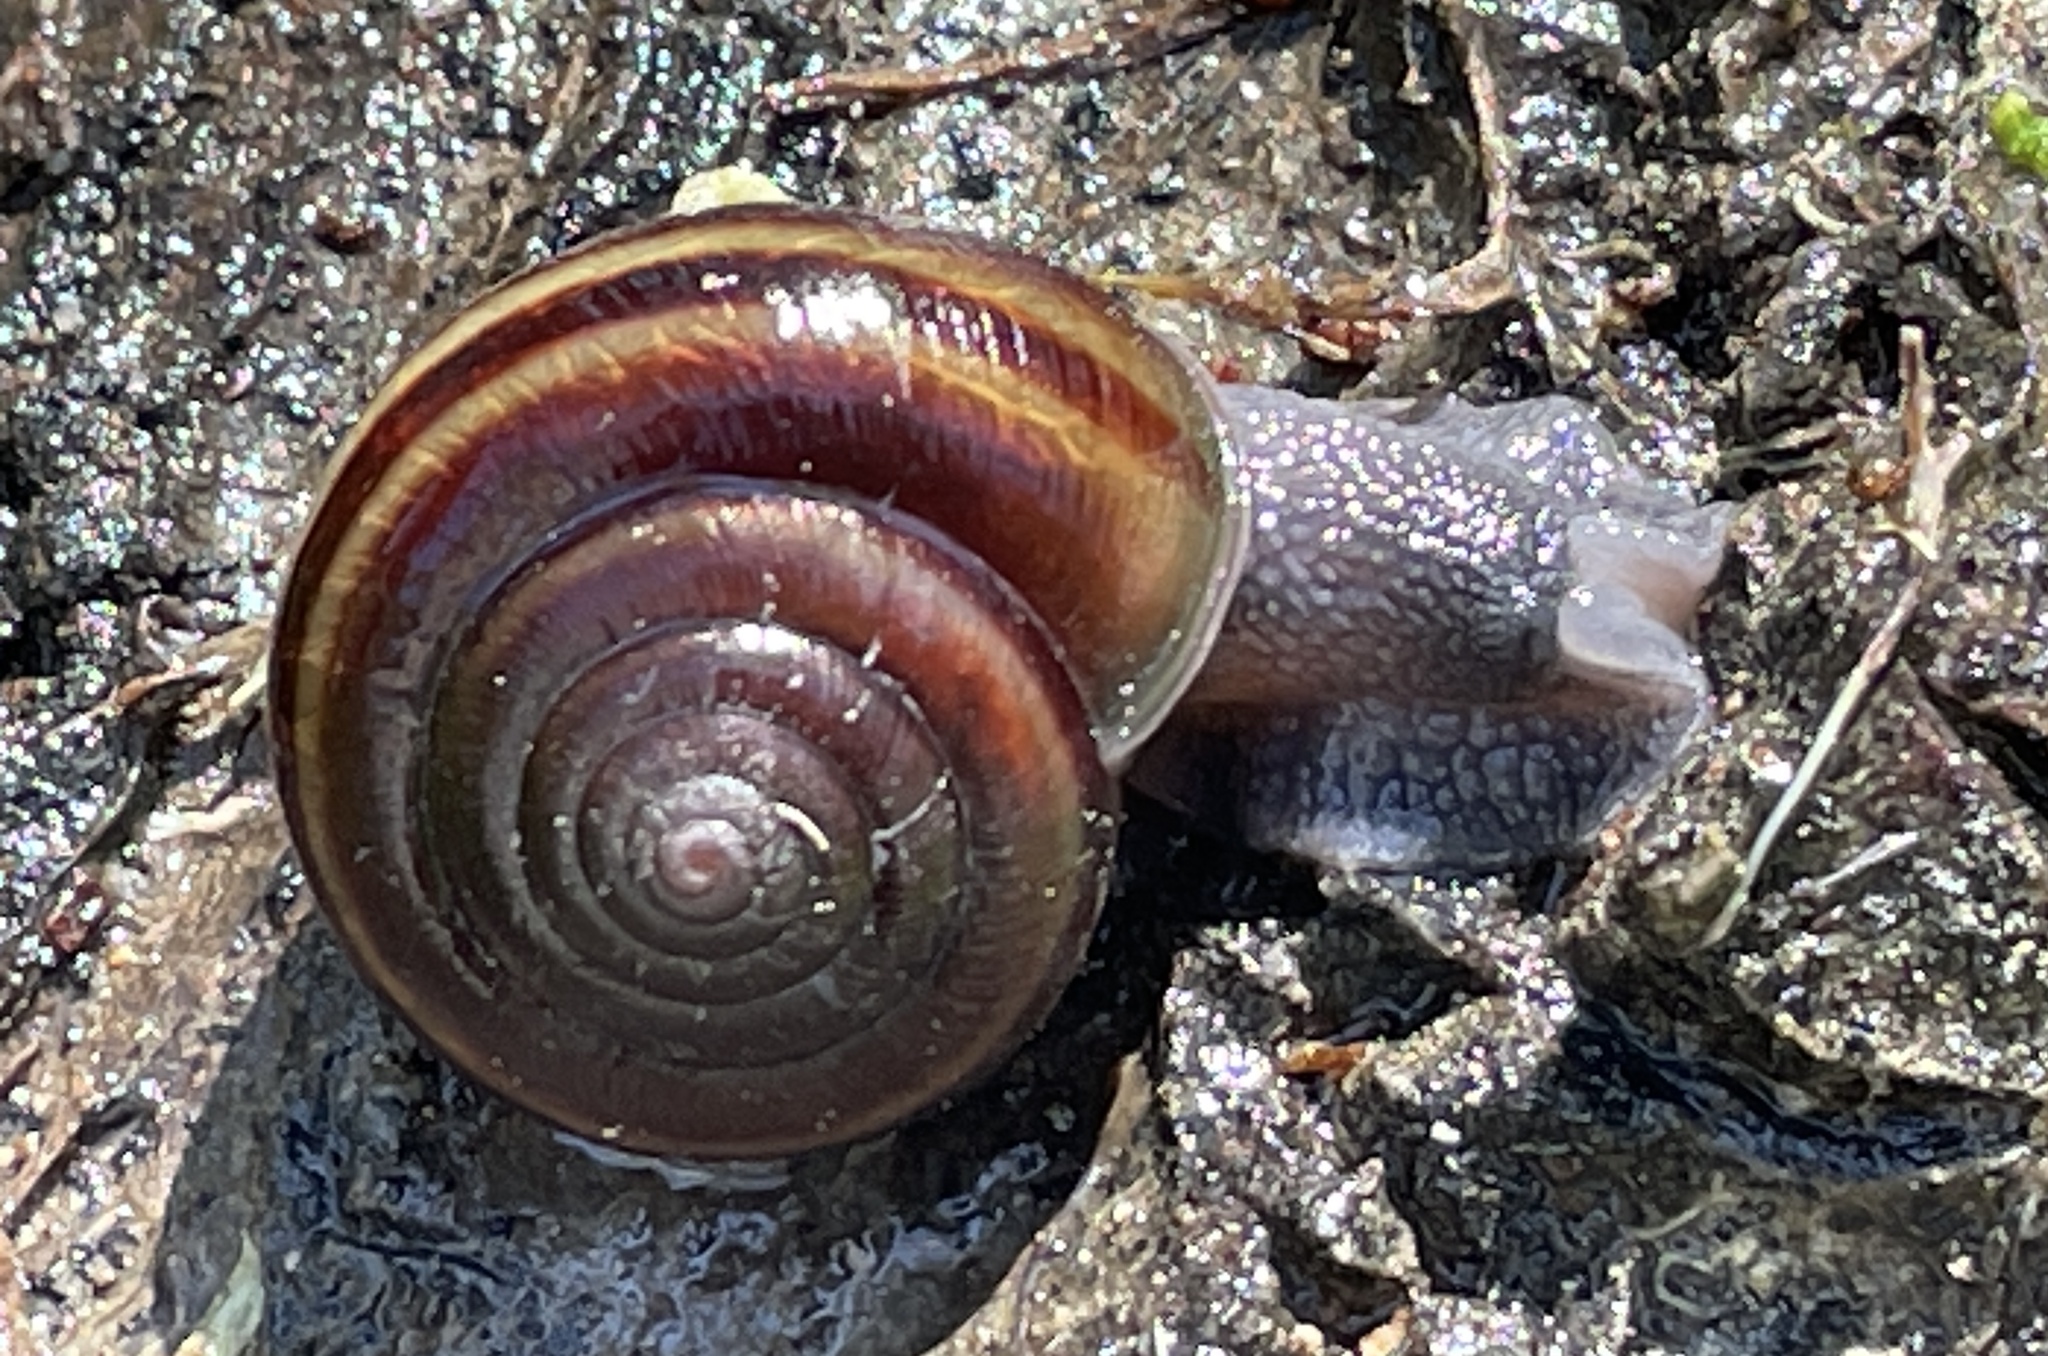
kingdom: Animalia
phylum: Mollusca
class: Gastropoda
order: Stylommatophora
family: Xanthonychidae
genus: Helminthoglypta
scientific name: Helminthoglypta dupetithouarsi
